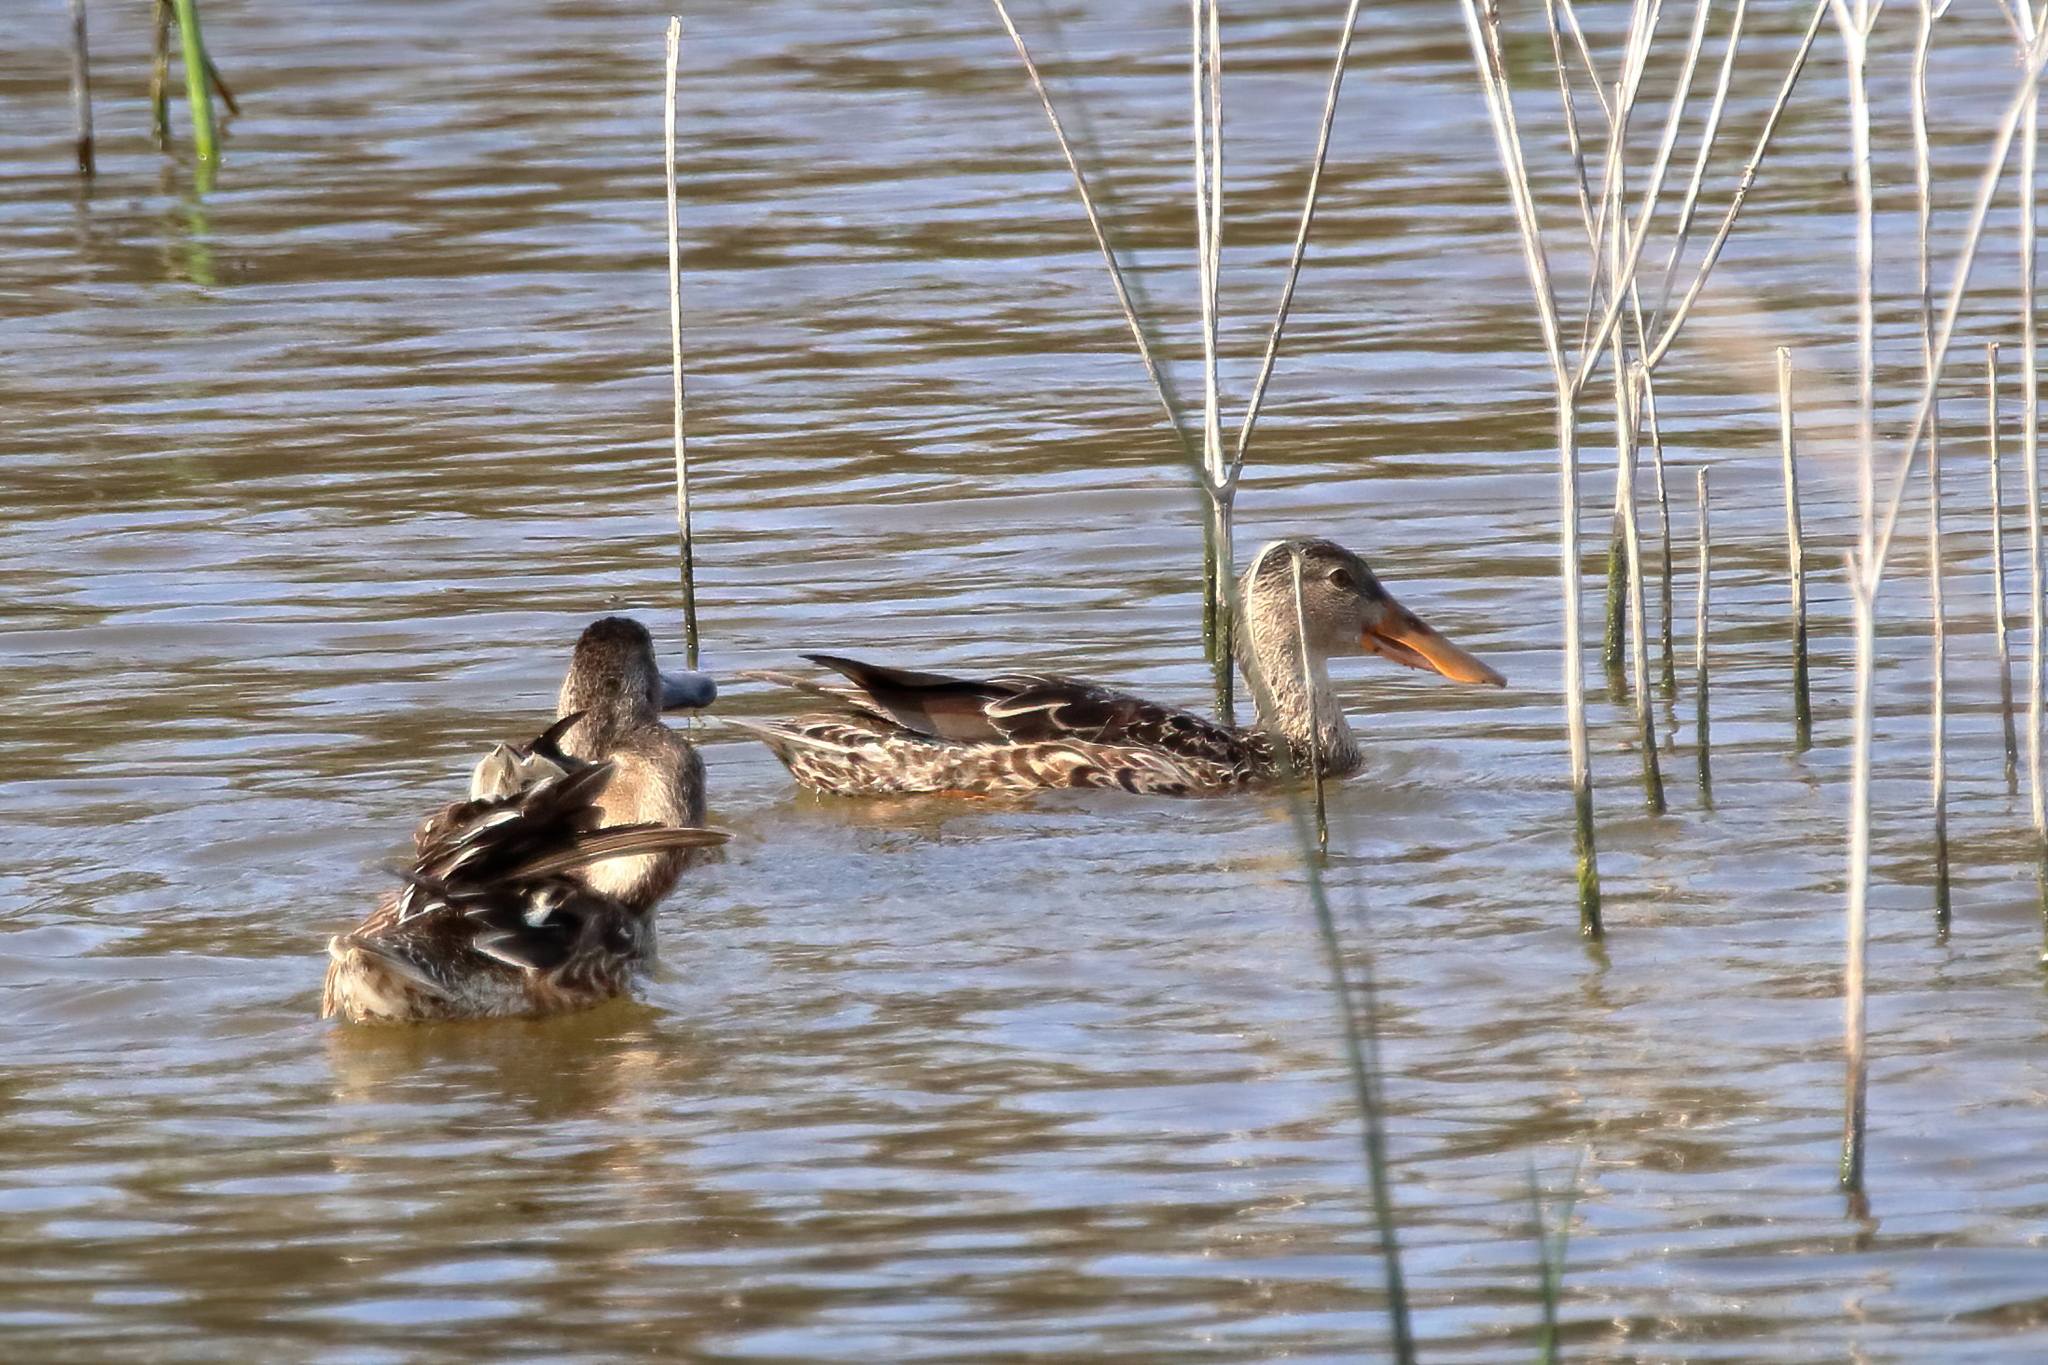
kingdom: Animalia
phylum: Chordata
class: Aves
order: Anseriformes
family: Anatidae
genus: Spatula
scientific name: Spatula clypeata
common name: Northern shoveler
